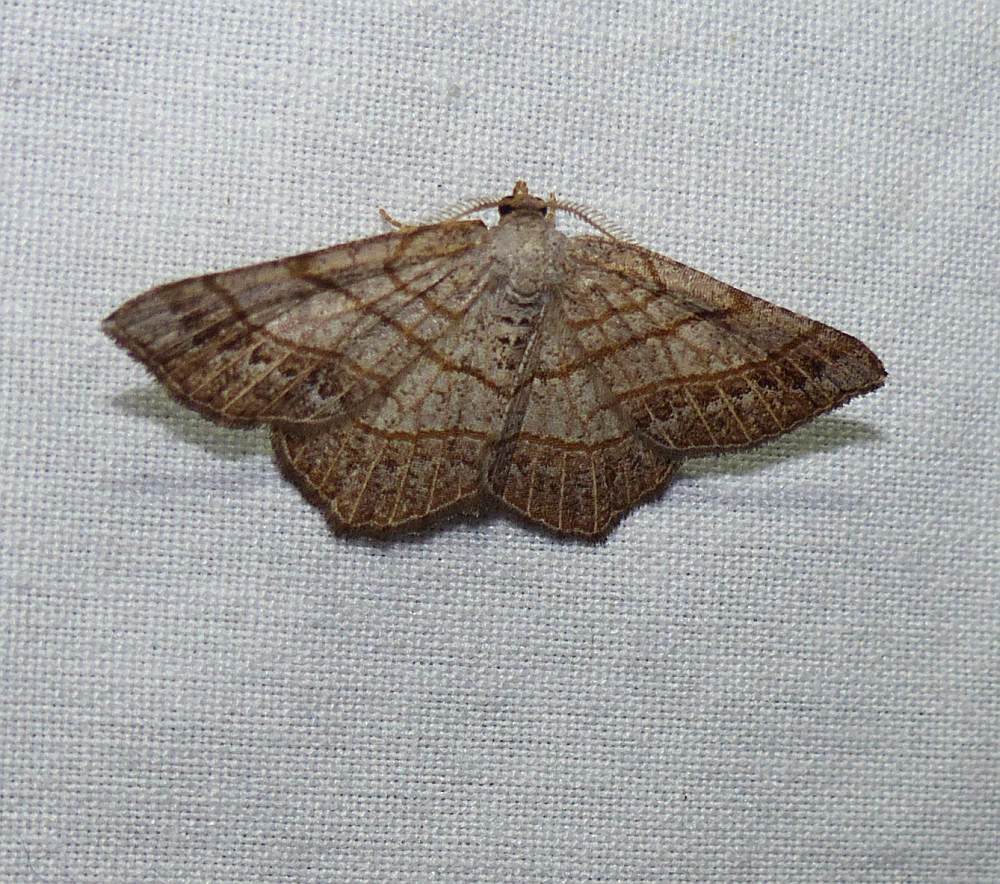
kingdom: Animalia
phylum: Arthropoda
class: Insecta
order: Lepidoptera
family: Geometridae
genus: Eumacaria
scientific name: Eumacaria madopata
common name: Brown-bordered geometer
